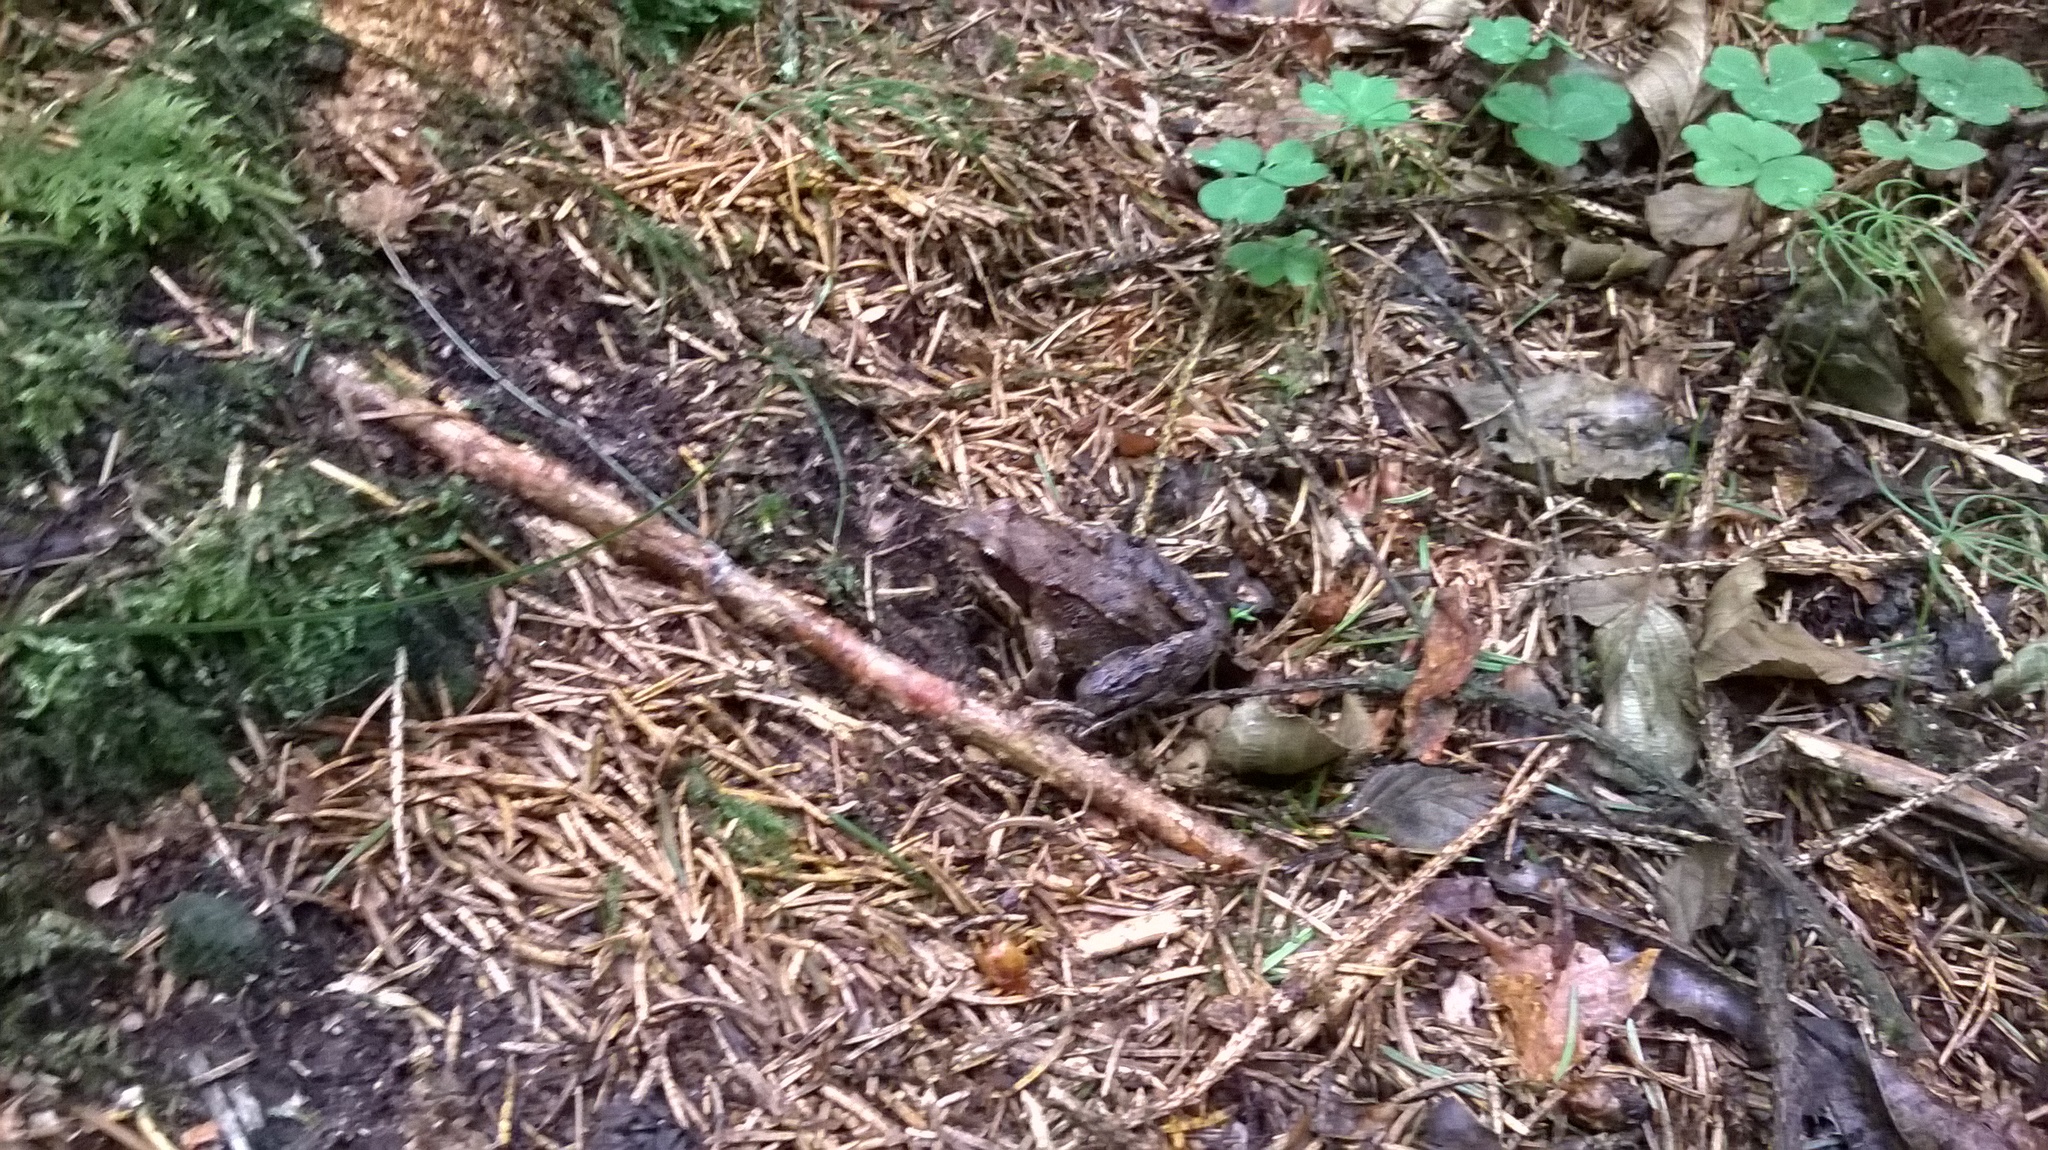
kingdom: Animalia
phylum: Chordata
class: Amphibia
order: Anura
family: Ranidae
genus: Rana
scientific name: Rana temporaria
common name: Common frog
